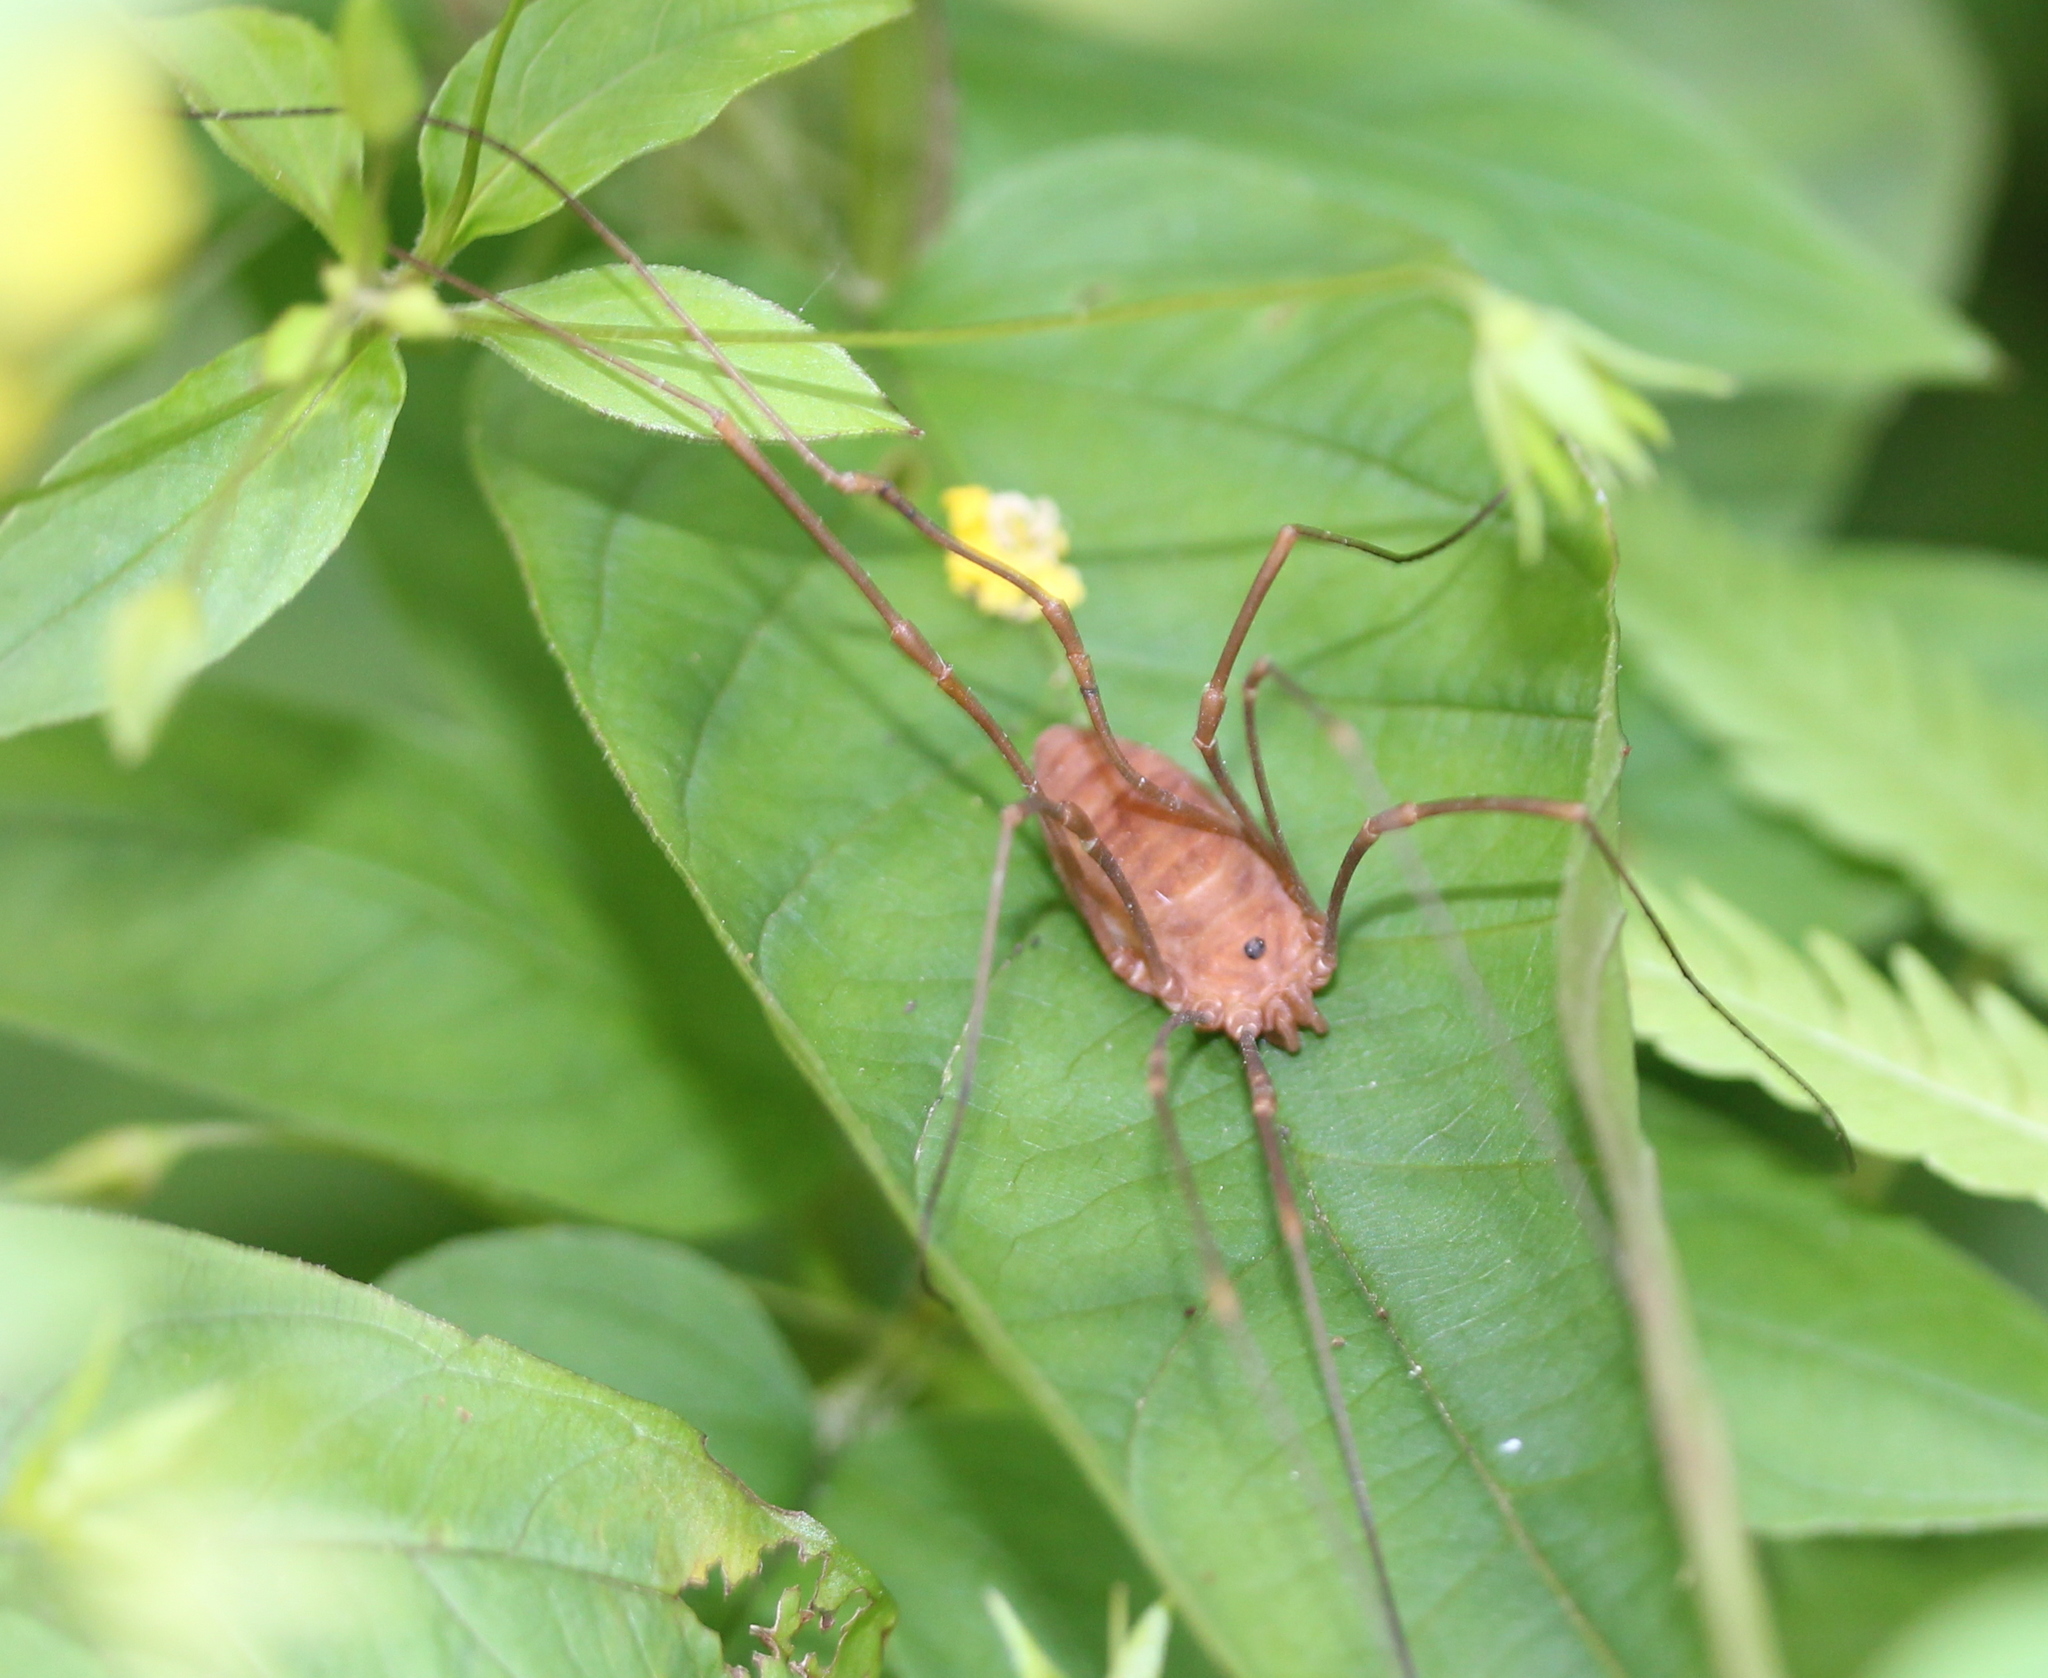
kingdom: Animalia
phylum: Arthropoda
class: Arachnida
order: Opiliones
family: Sclerosomatidae
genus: Leiobunum
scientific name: Leiobunum ventricosum
